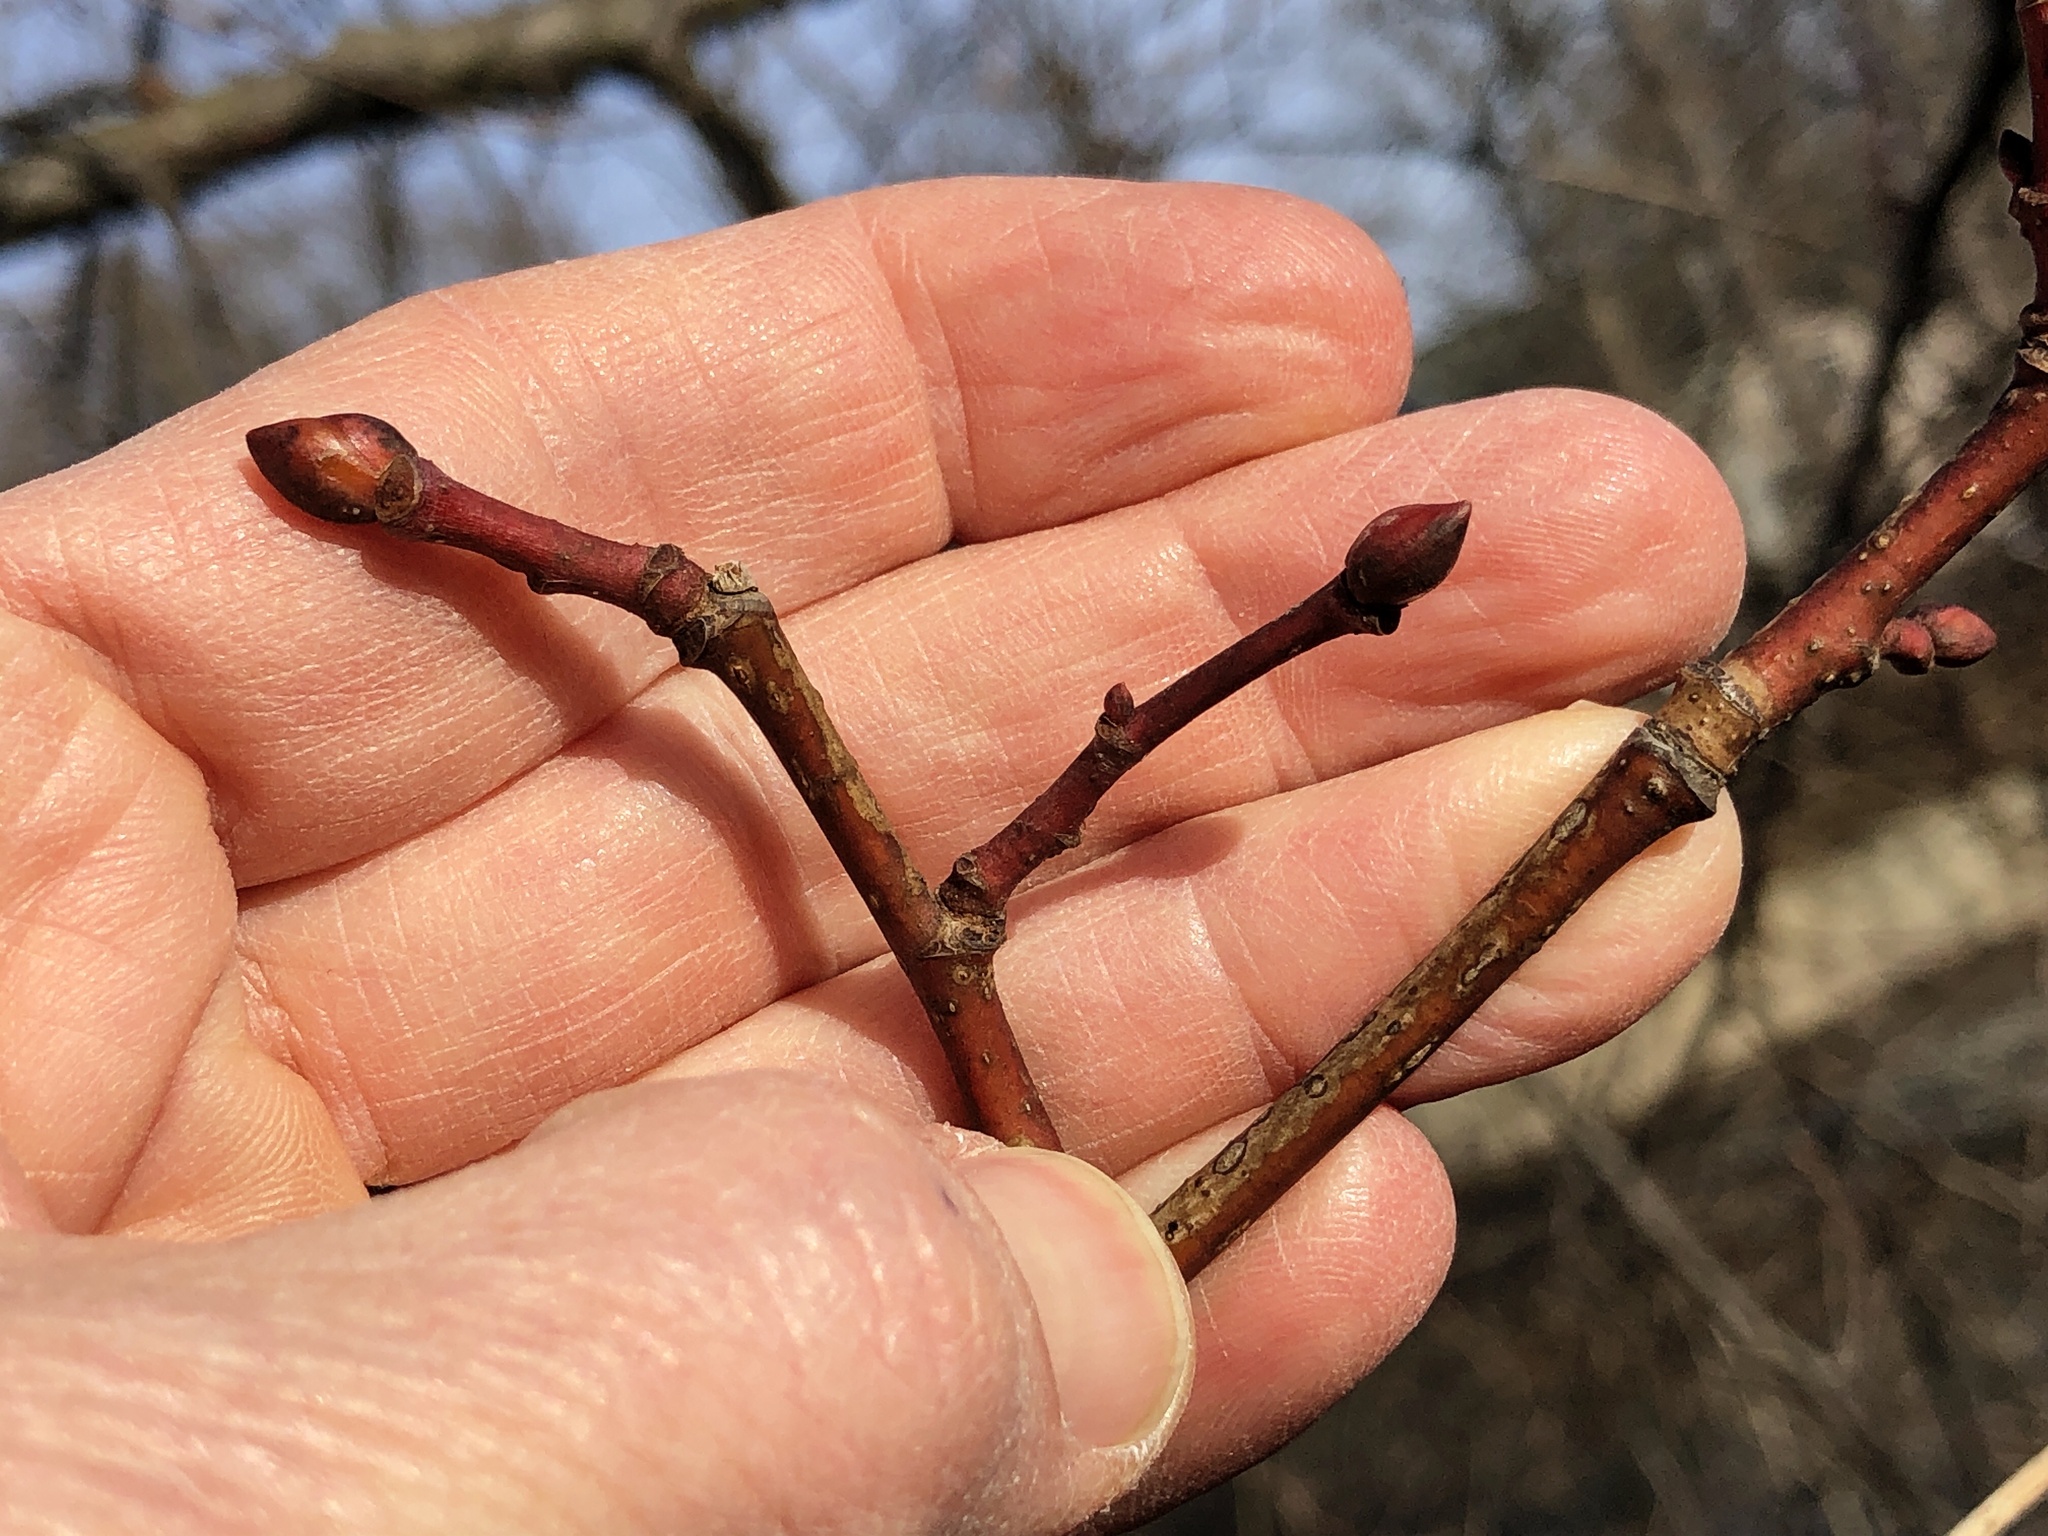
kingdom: Plantae
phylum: Tracheophyta
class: Magnoliopsida
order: Malvales
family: Malvaceae
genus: Tilia
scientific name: Tilia americana
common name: Basswood
